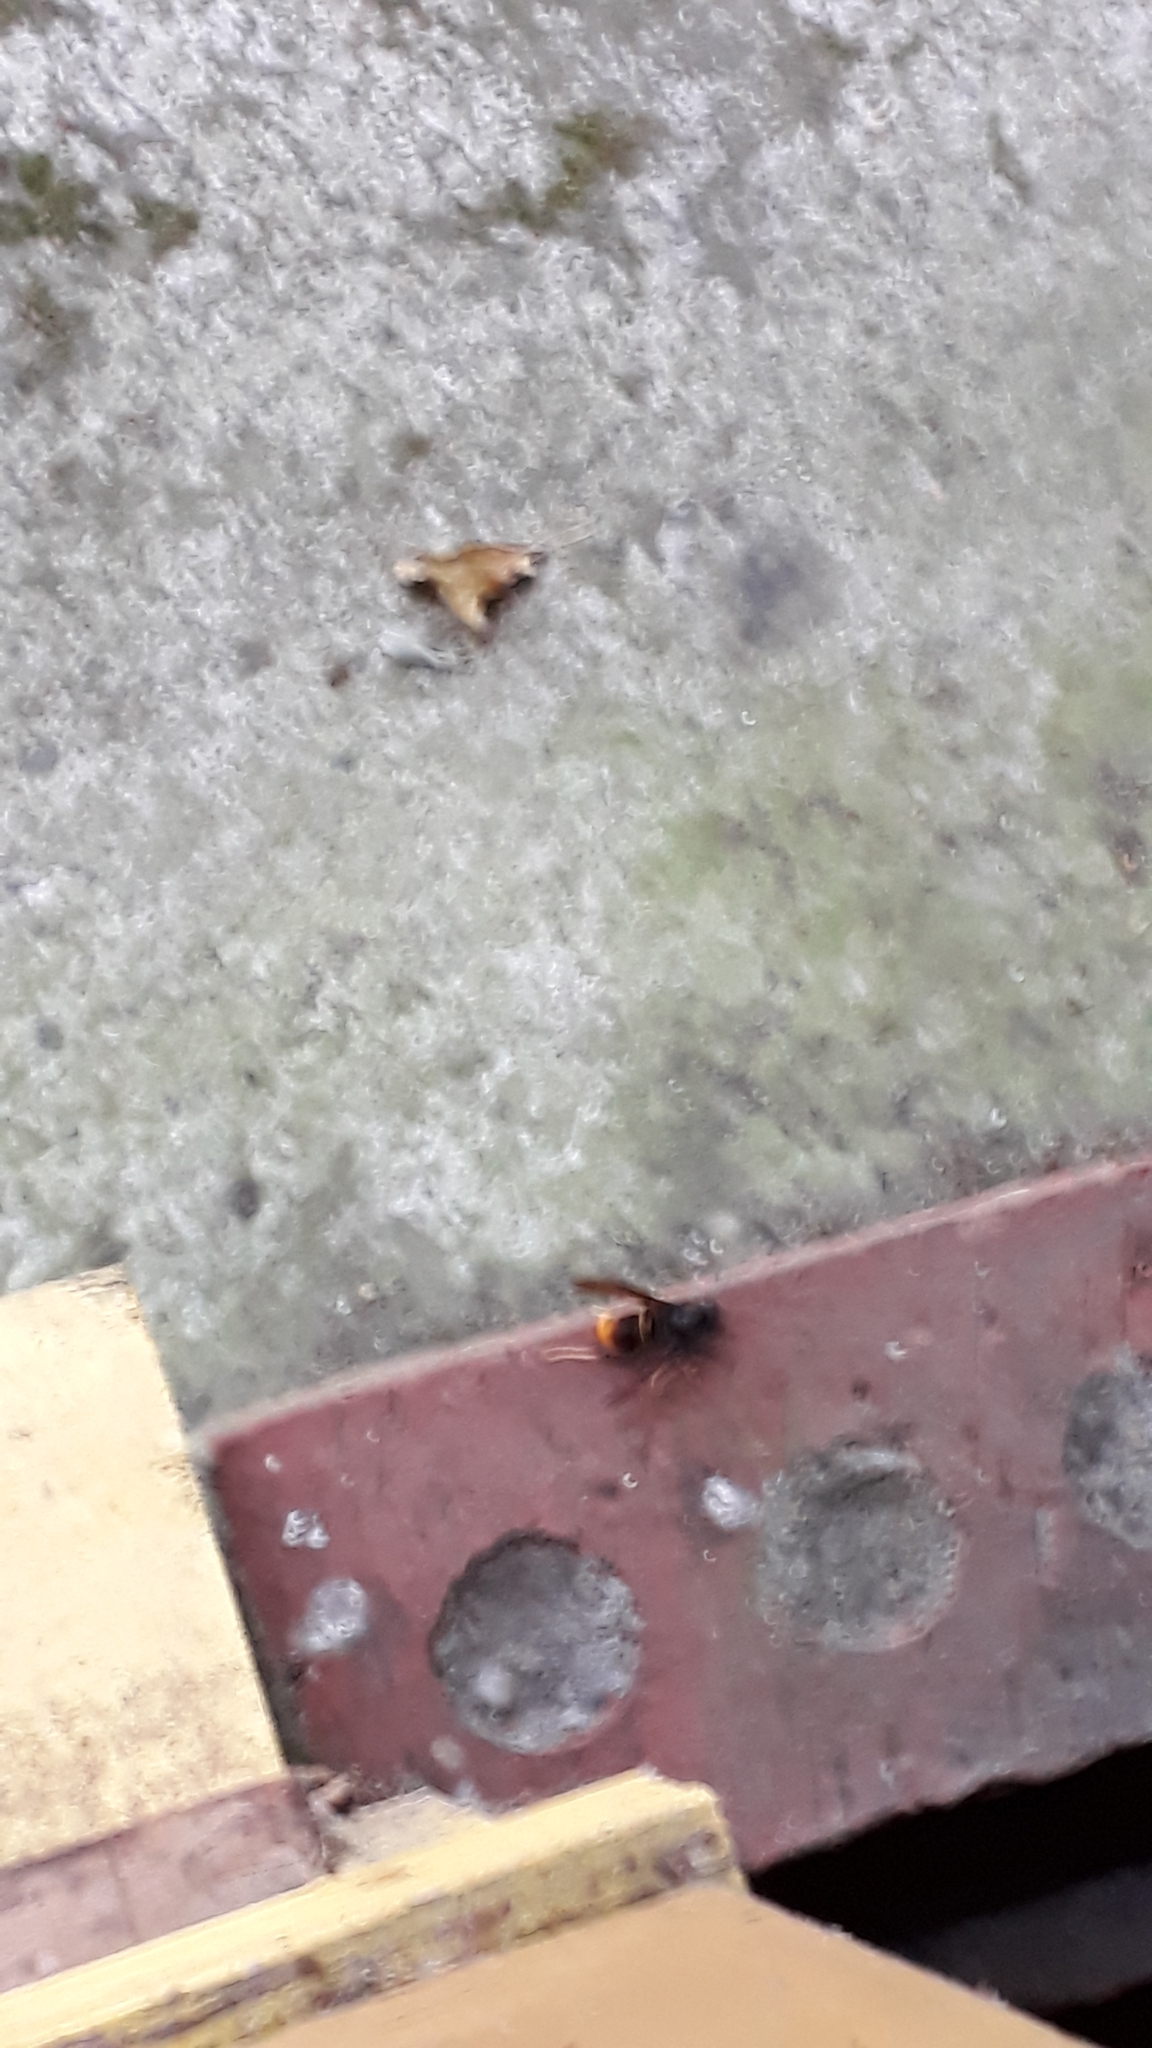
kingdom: Animalia
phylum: Arthropoda
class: Insecta
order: Hymenoptera
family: Vespidae
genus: Vespa
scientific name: Vespa velutina
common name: Asian hornet
